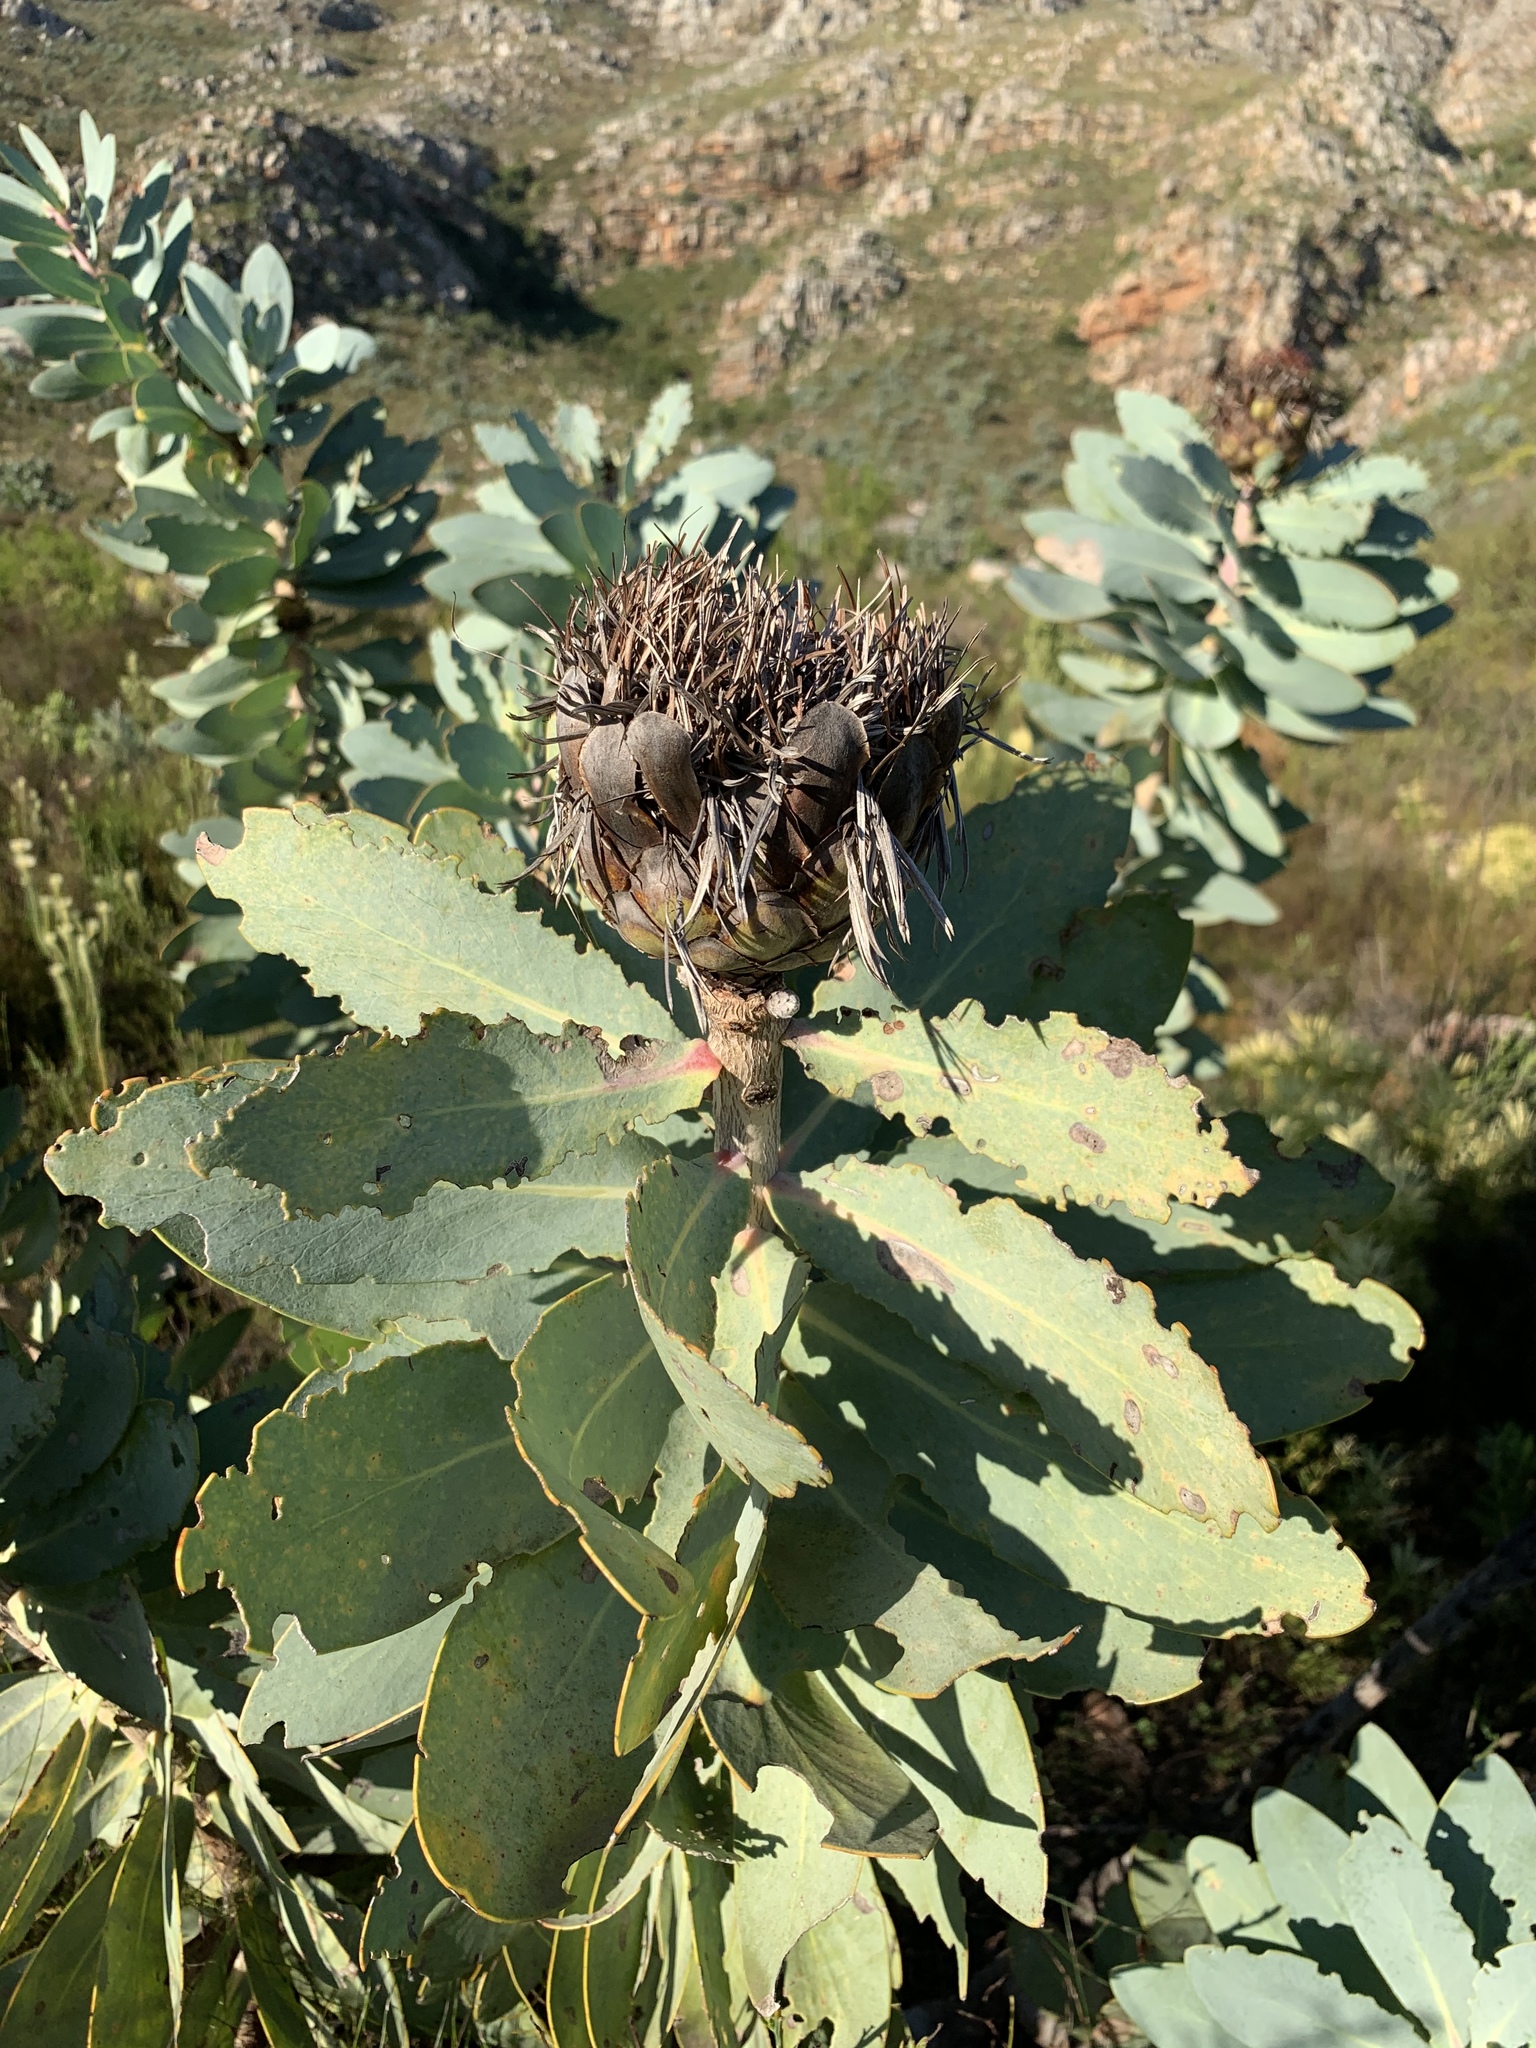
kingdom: Plantae
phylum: Tracheophyta
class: Magnoliopsida
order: Proteales
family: Proteaceae
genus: Protea
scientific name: Protea nitida
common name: Tree protea
